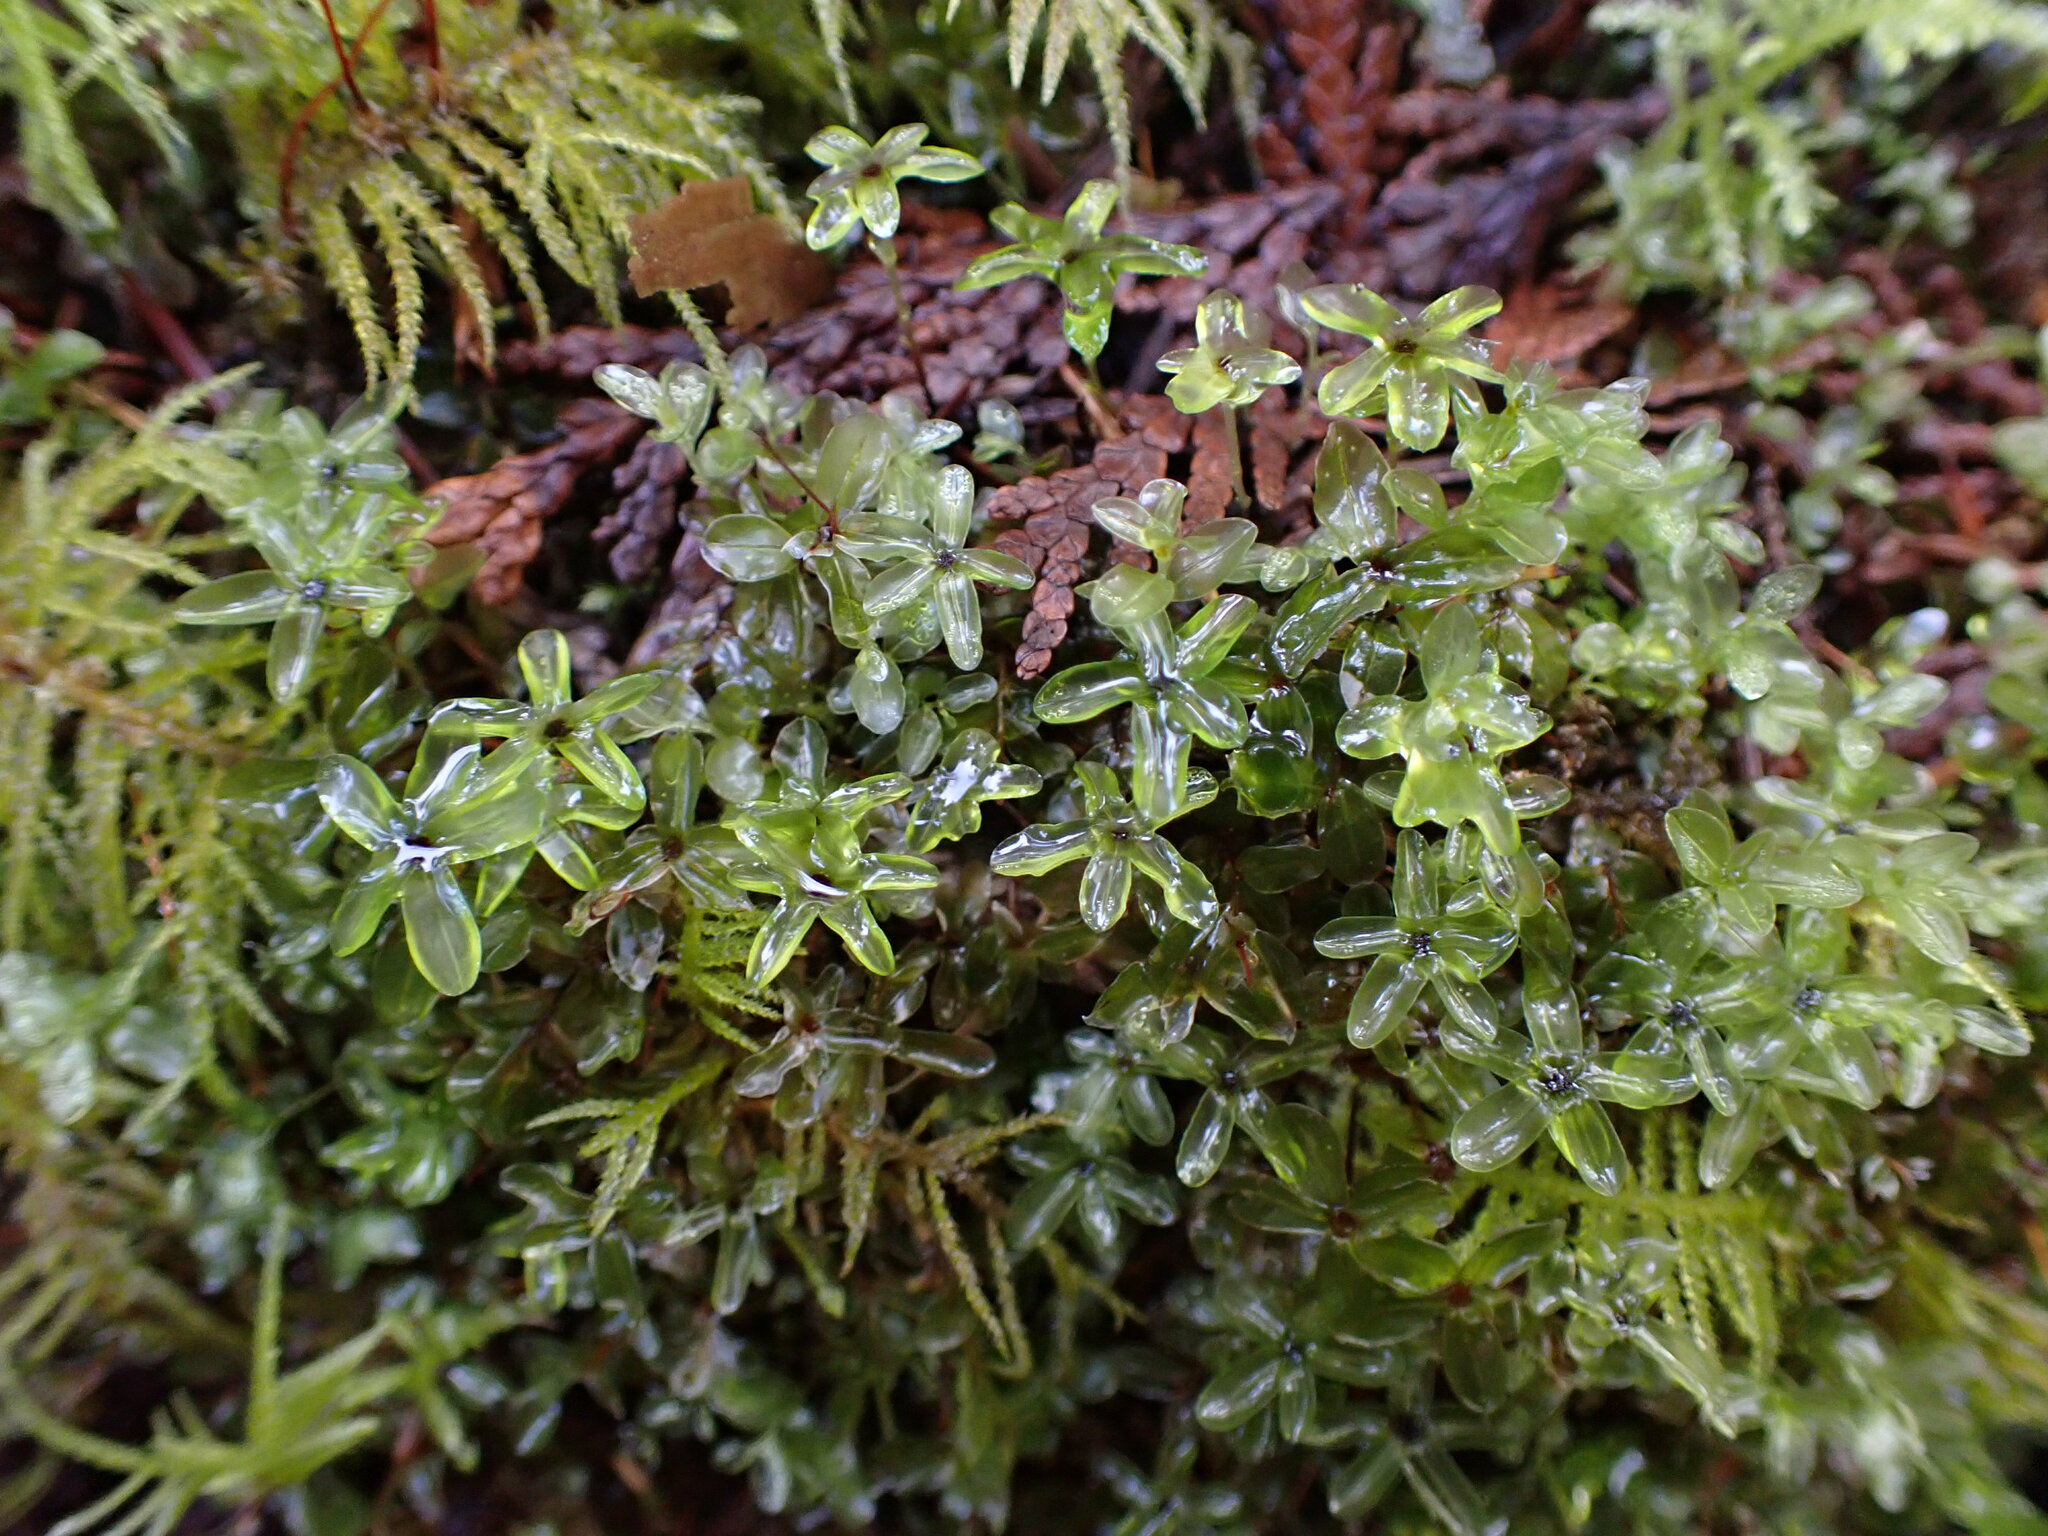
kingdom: Plantae
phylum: Bryophyta
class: Bryopsida
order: Bryales
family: Mniaceae
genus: Rhizomnium
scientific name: Rhizomnium glabrescens
